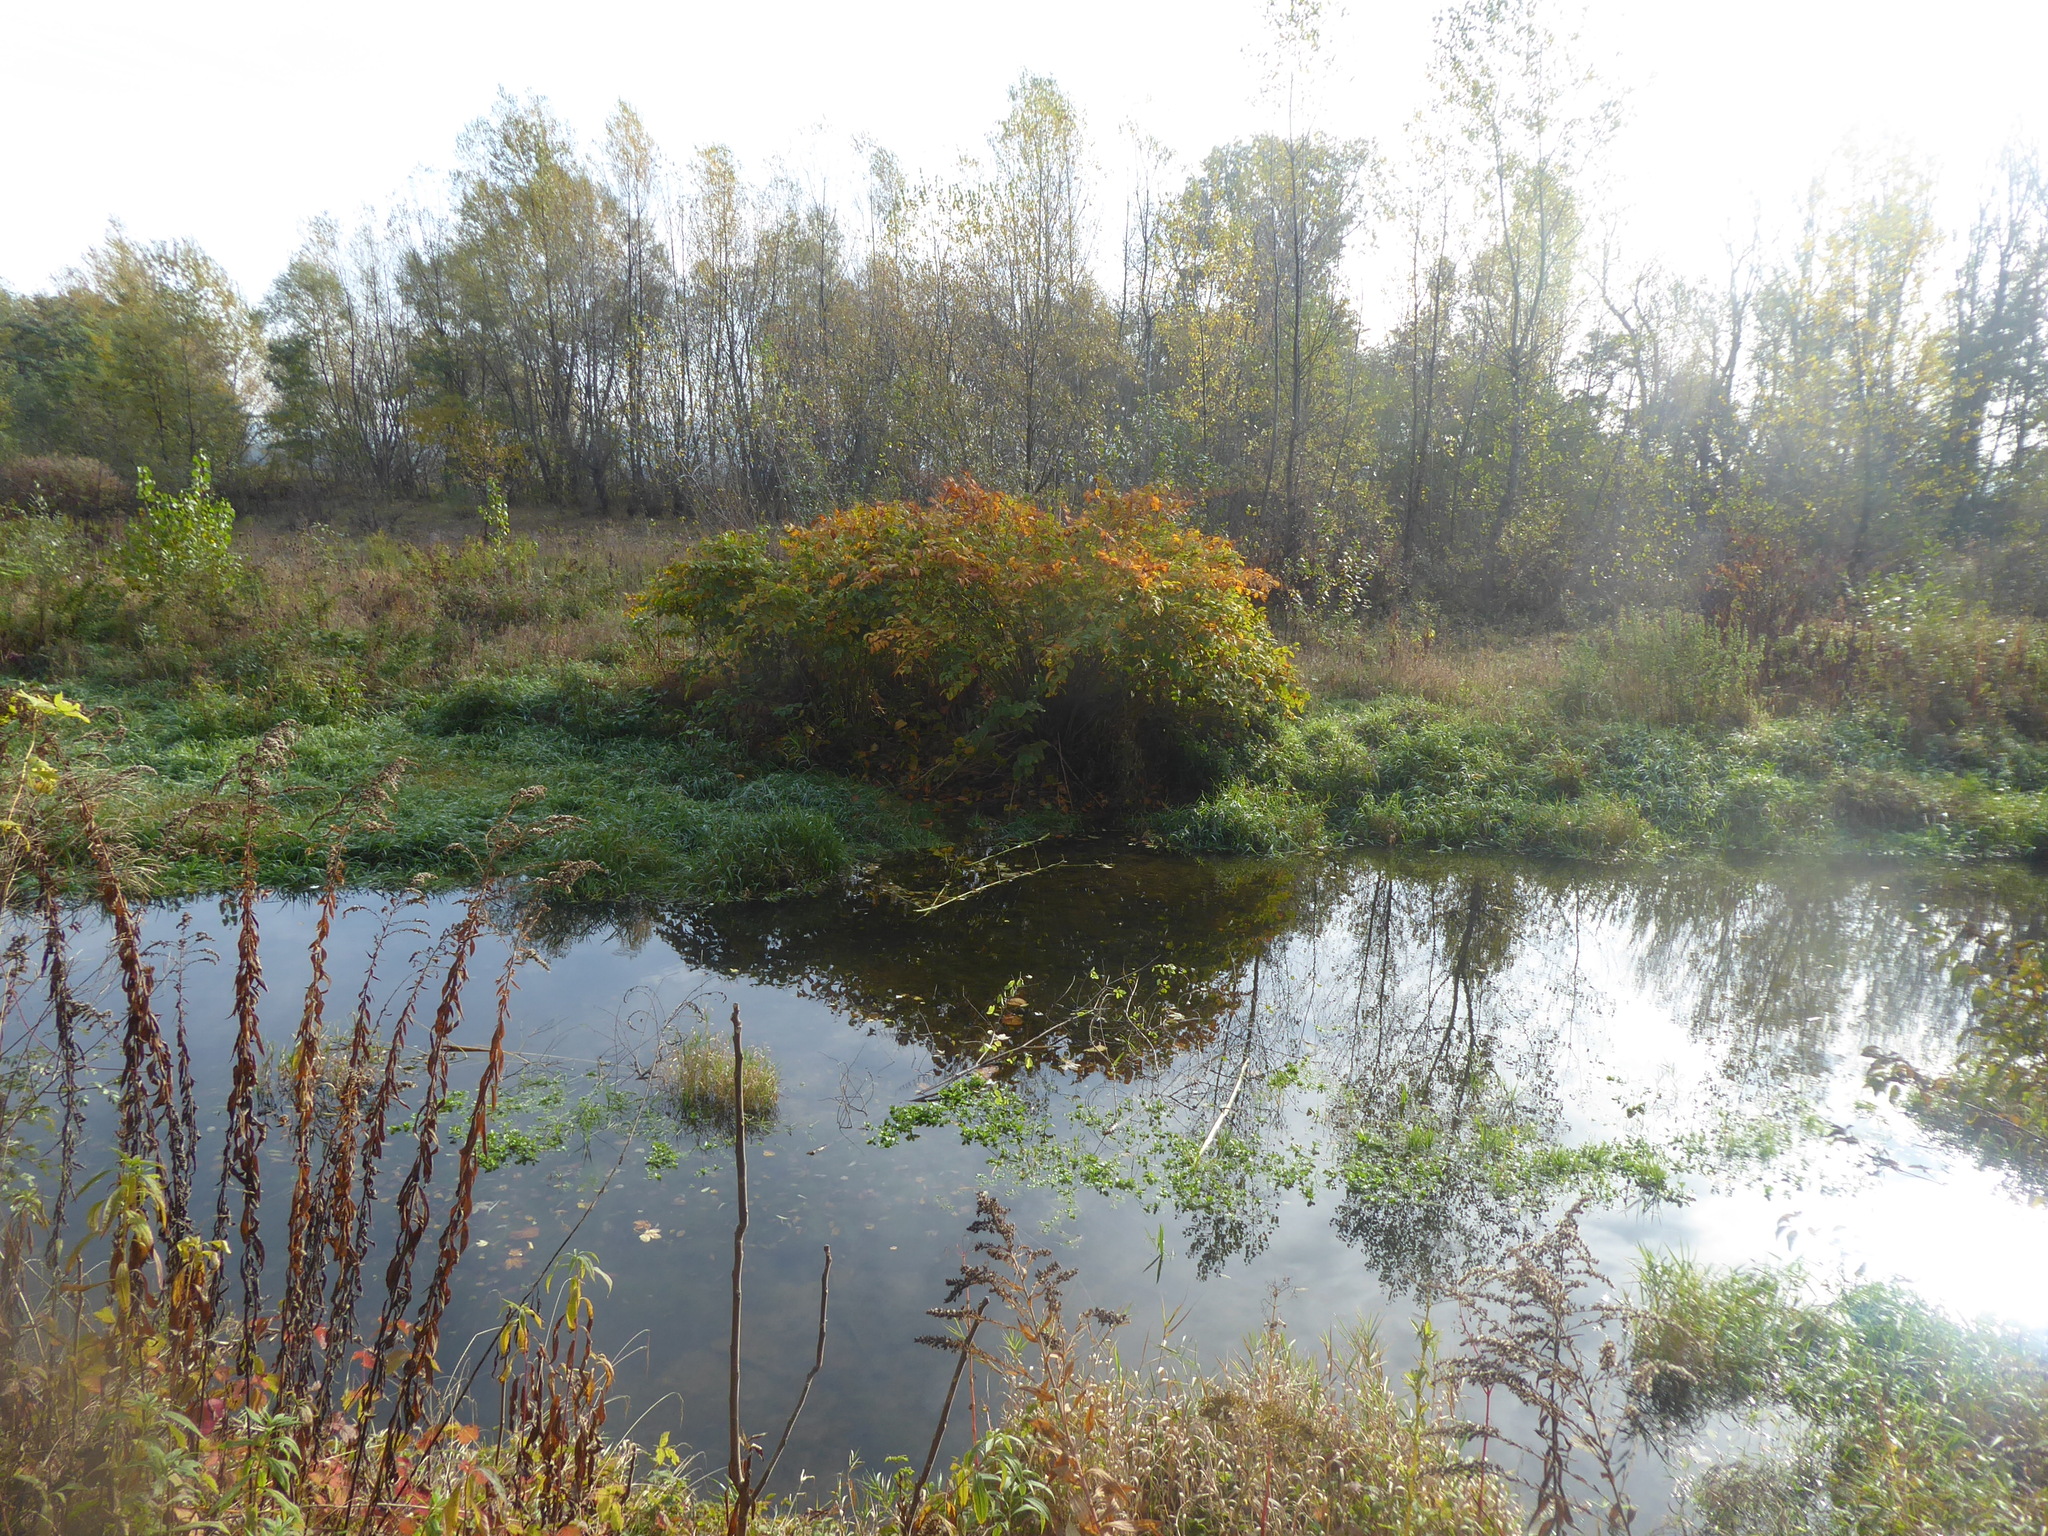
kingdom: Plantae
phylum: Tracheophyta
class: Magnoliopsida
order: Caryophyllales
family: Polygonaceae
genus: Reynoutria
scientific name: Reynoutria japonica
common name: Japanese knotweed
